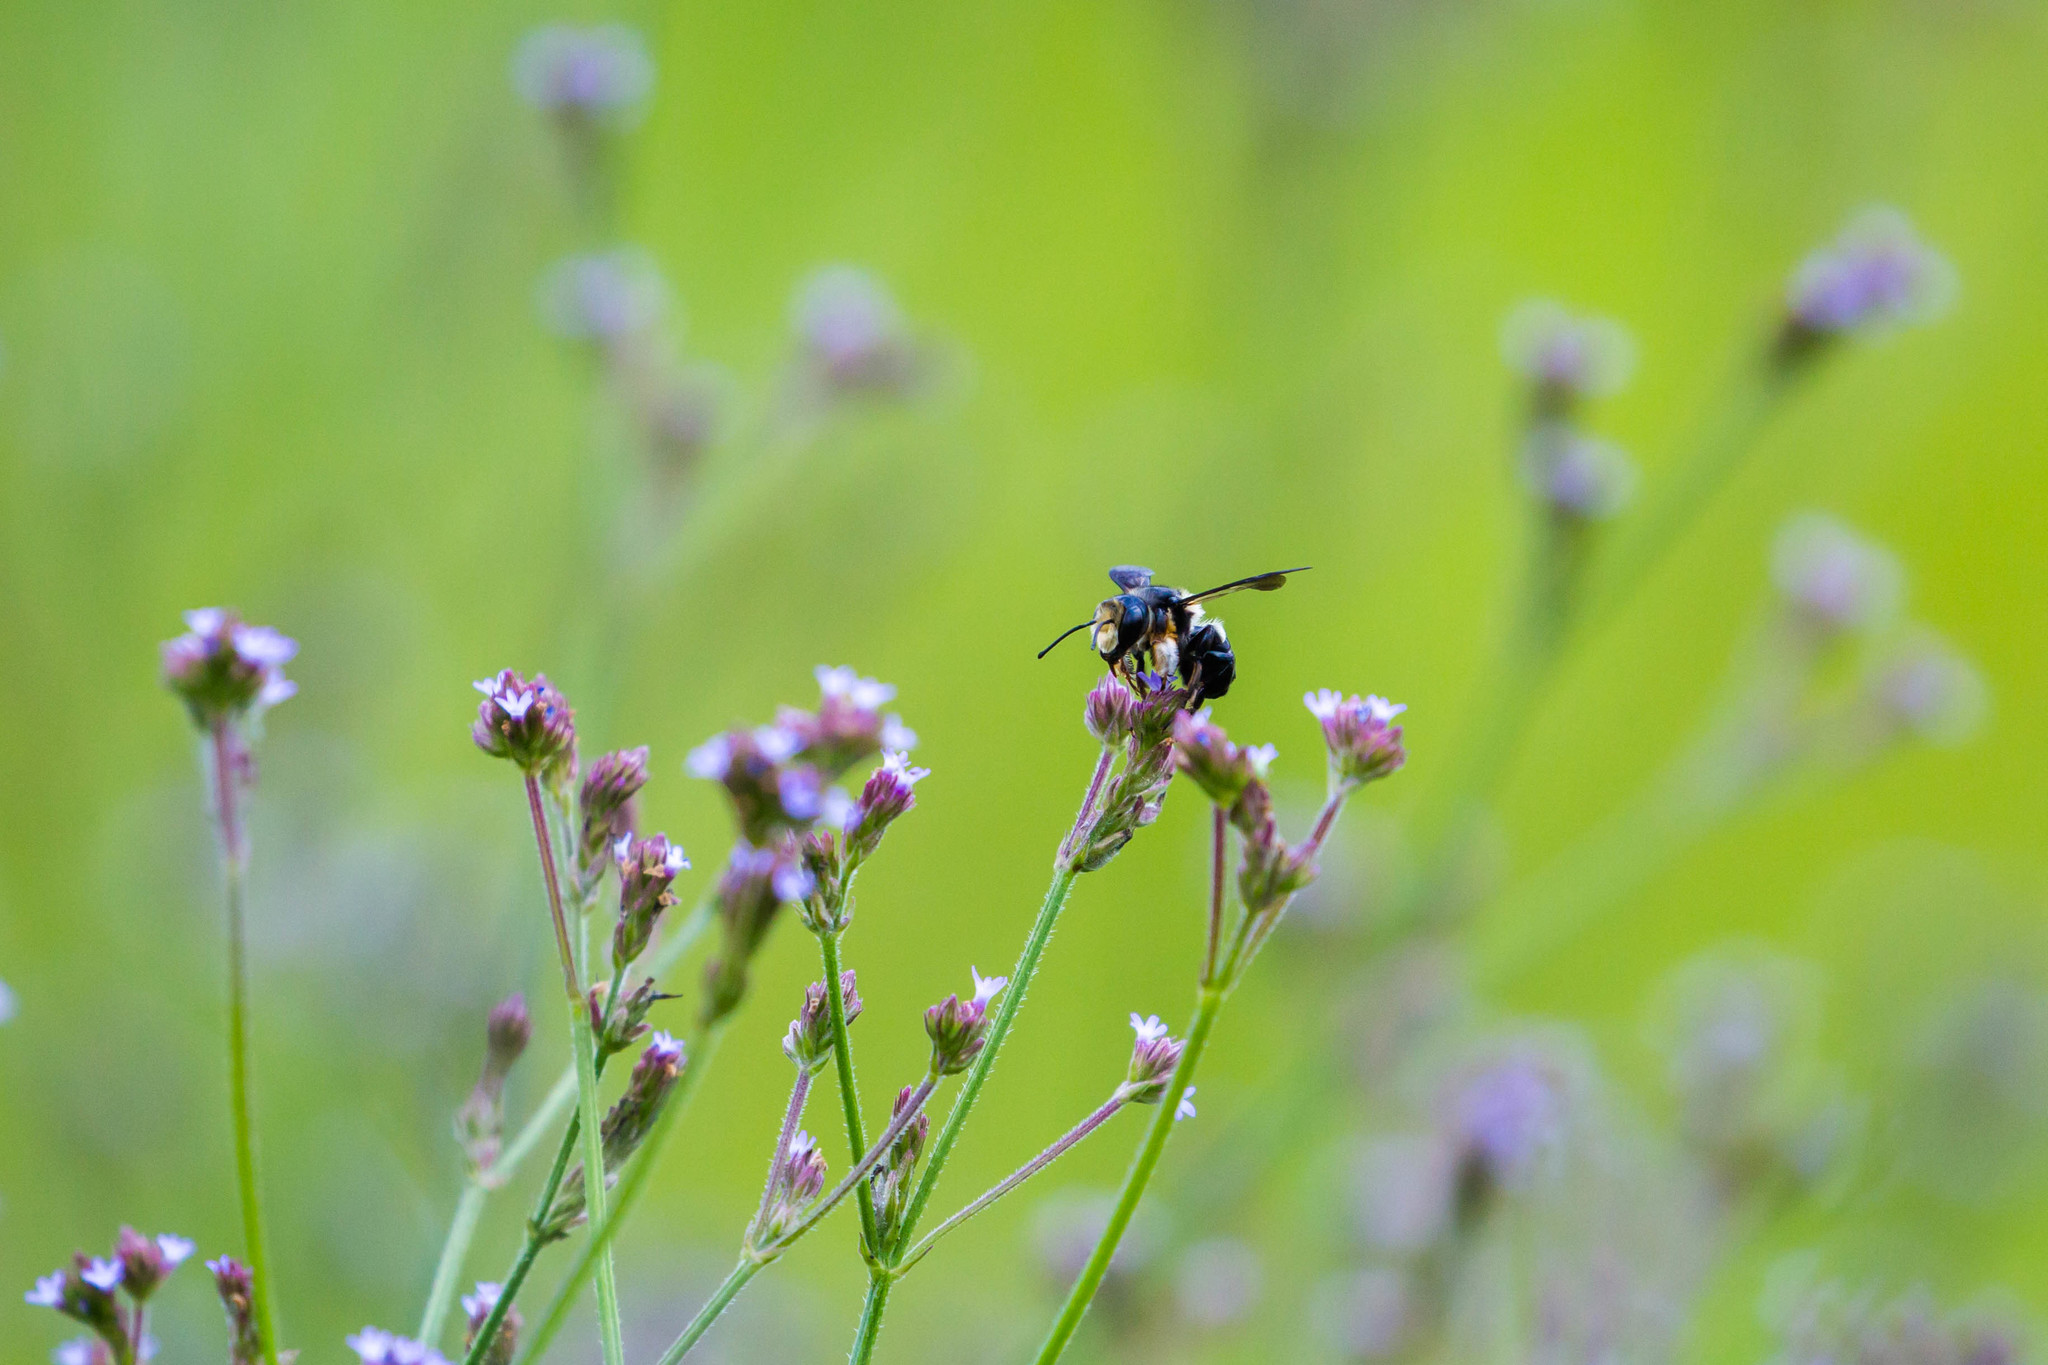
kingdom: Animalia
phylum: Arthropoda
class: Insecta
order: Hymenoptera
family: Megachilidae
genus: Megachile
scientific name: Megachile xylocopoides
